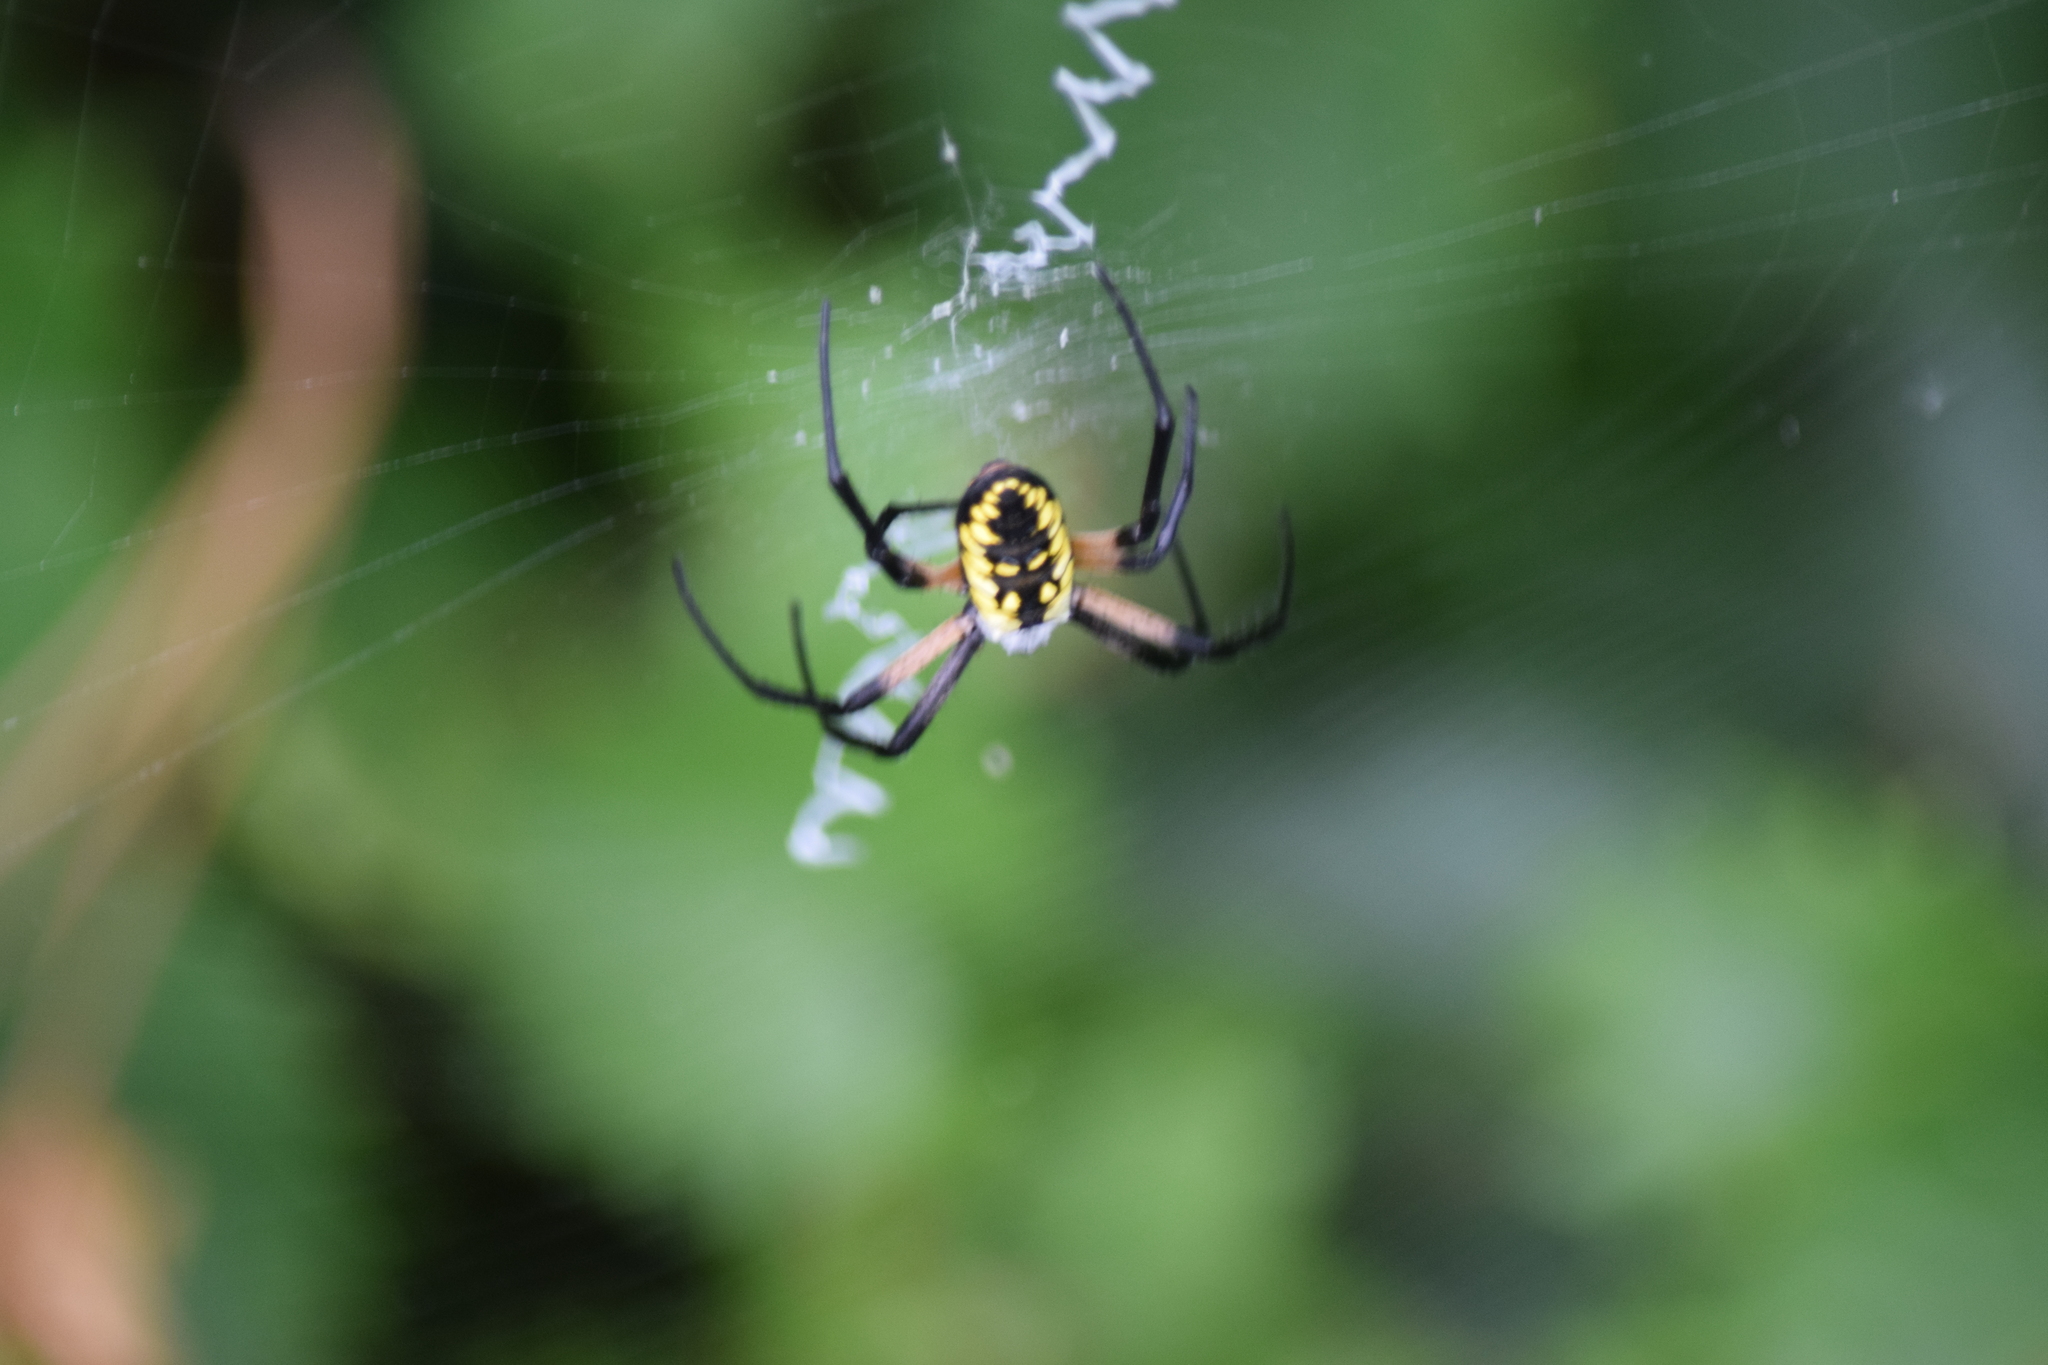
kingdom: Animalia
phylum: Arthropoda
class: Arachnida
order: Araneae
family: Araneidae
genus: Argiope
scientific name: Argiope aurantia
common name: Orb weavers
